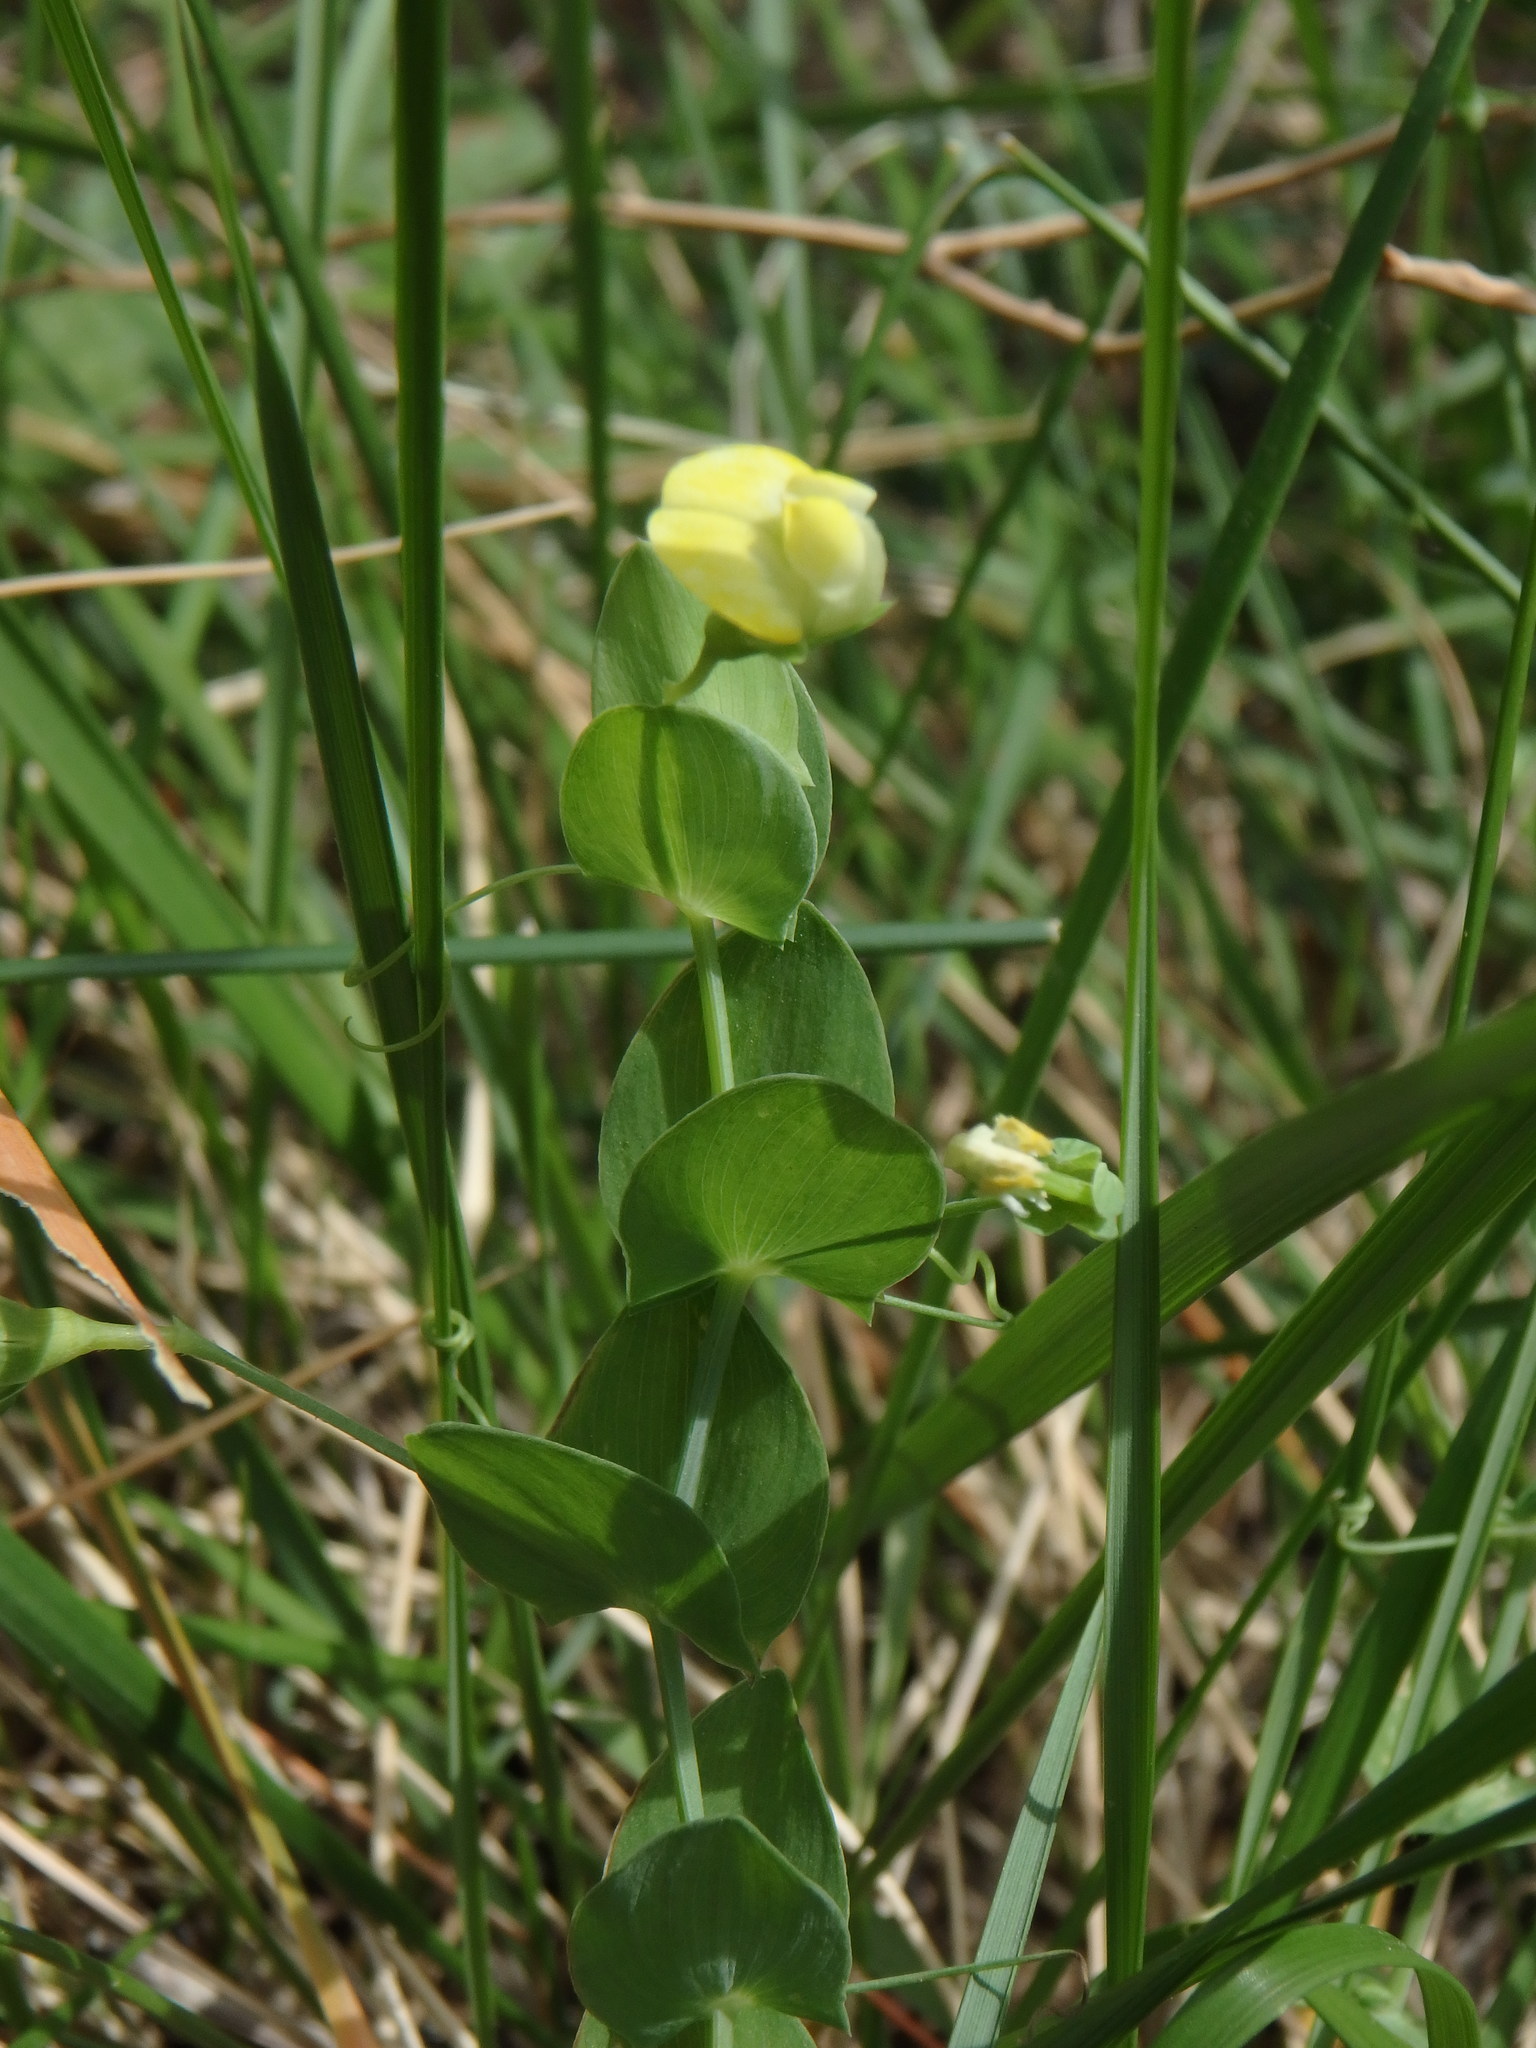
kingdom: Plantae
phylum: Tracheophyta
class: Magnoliopsida
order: Fabales
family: Fabaceae
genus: Lathyrus
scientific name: Lathyrus aphaca
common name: Yellow vetchling
